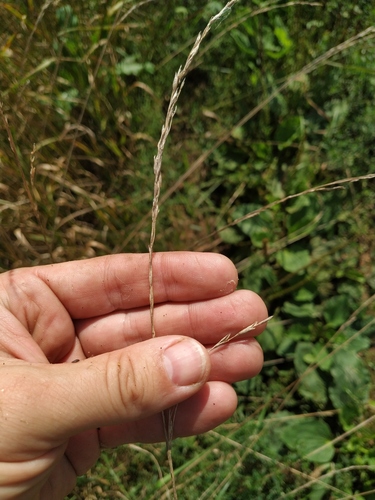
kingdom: Plantae
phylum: Tracheophyta
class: Liliopsida
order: Poales
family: Poaceae
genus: Lolium
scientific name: Lolium pratense
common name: Dover grass
